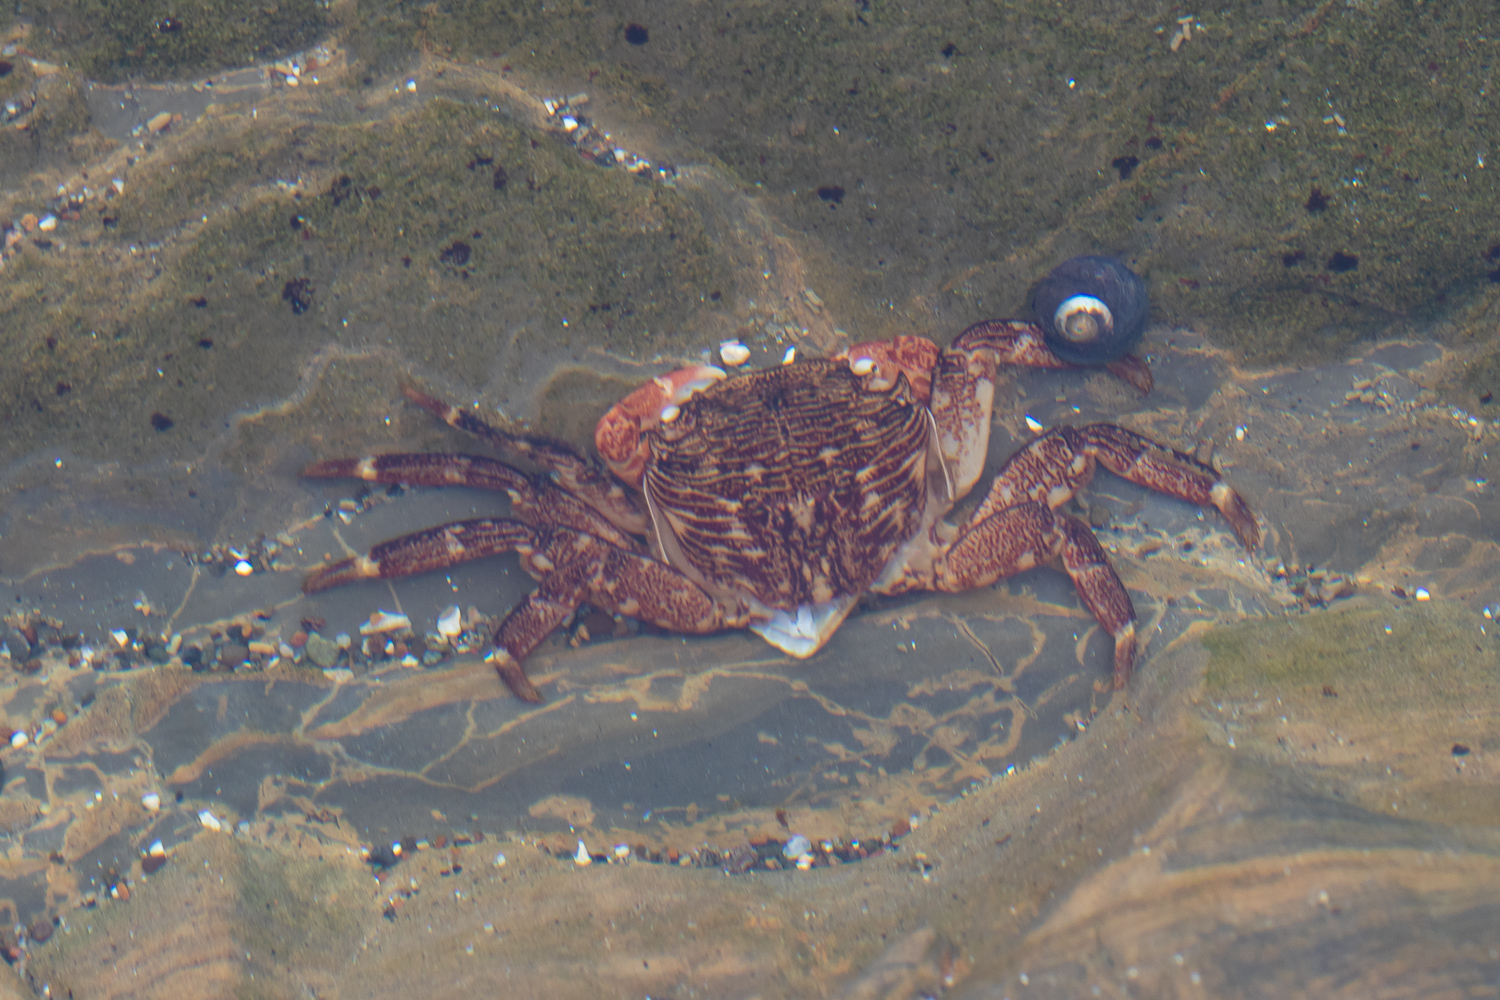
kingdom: Animalia
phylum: Arthropoda
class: Malacostraca
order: Decapoda
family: Grapsidae
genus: Pachygrapsus
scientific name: Pachygrapsus crassipes
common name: Striped shore crab
